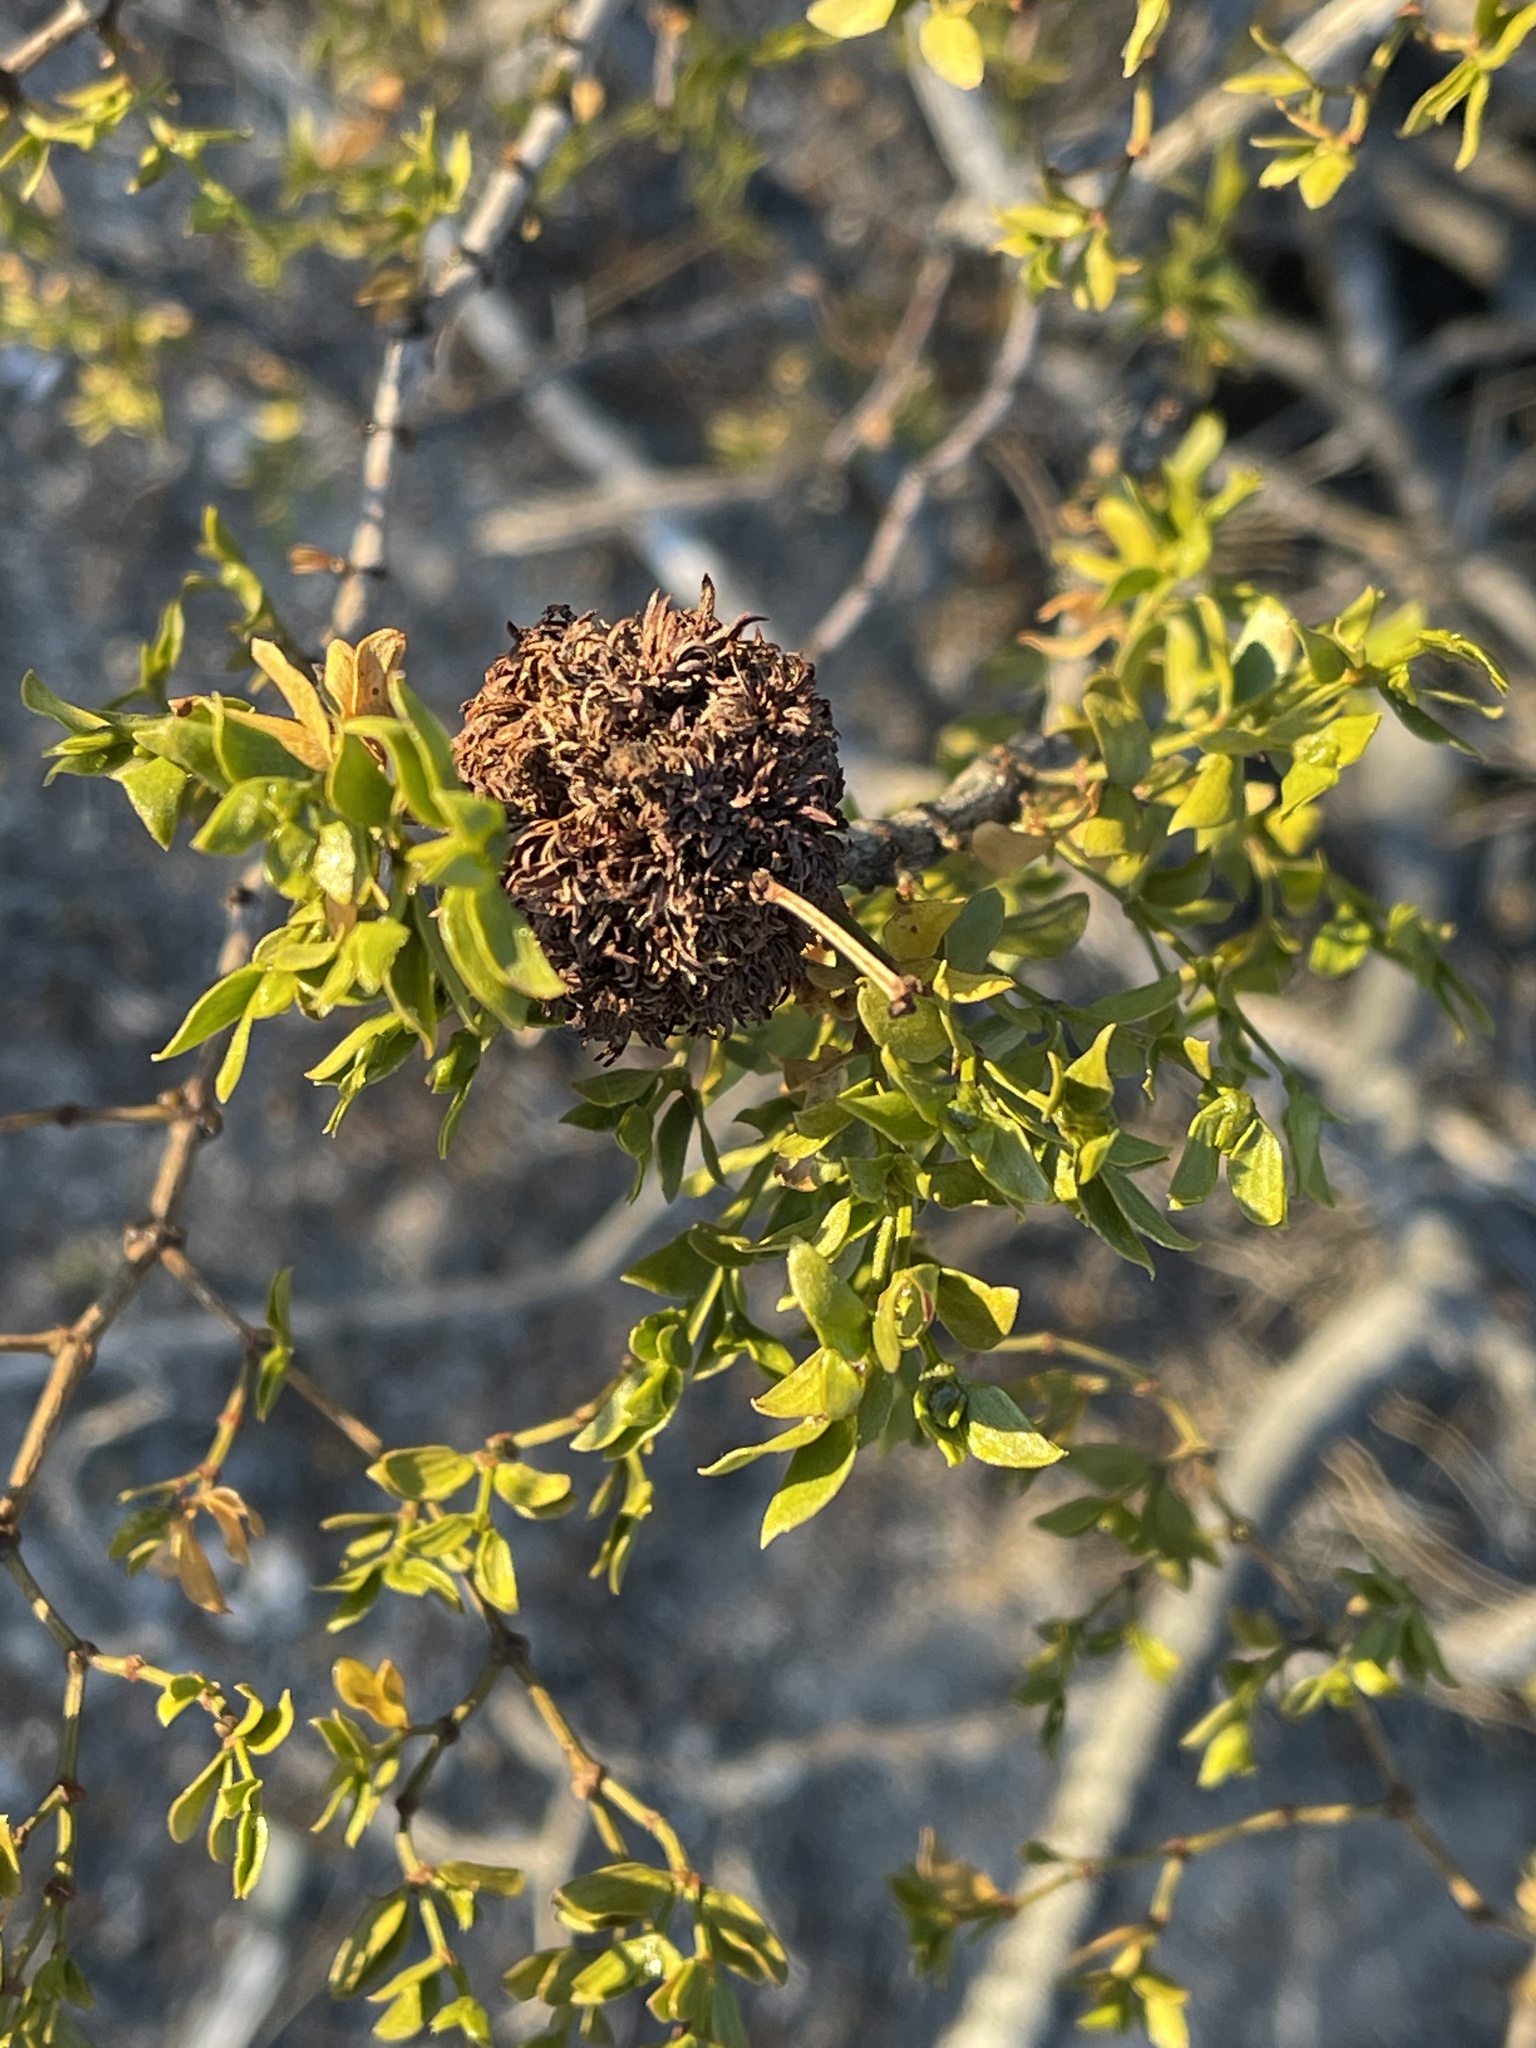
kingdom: Animalia
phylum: Arthropoda
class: Insecta
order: Diptera
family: Cecidomyiidae
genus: Asphondylia
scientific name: Asphondylia auripila
